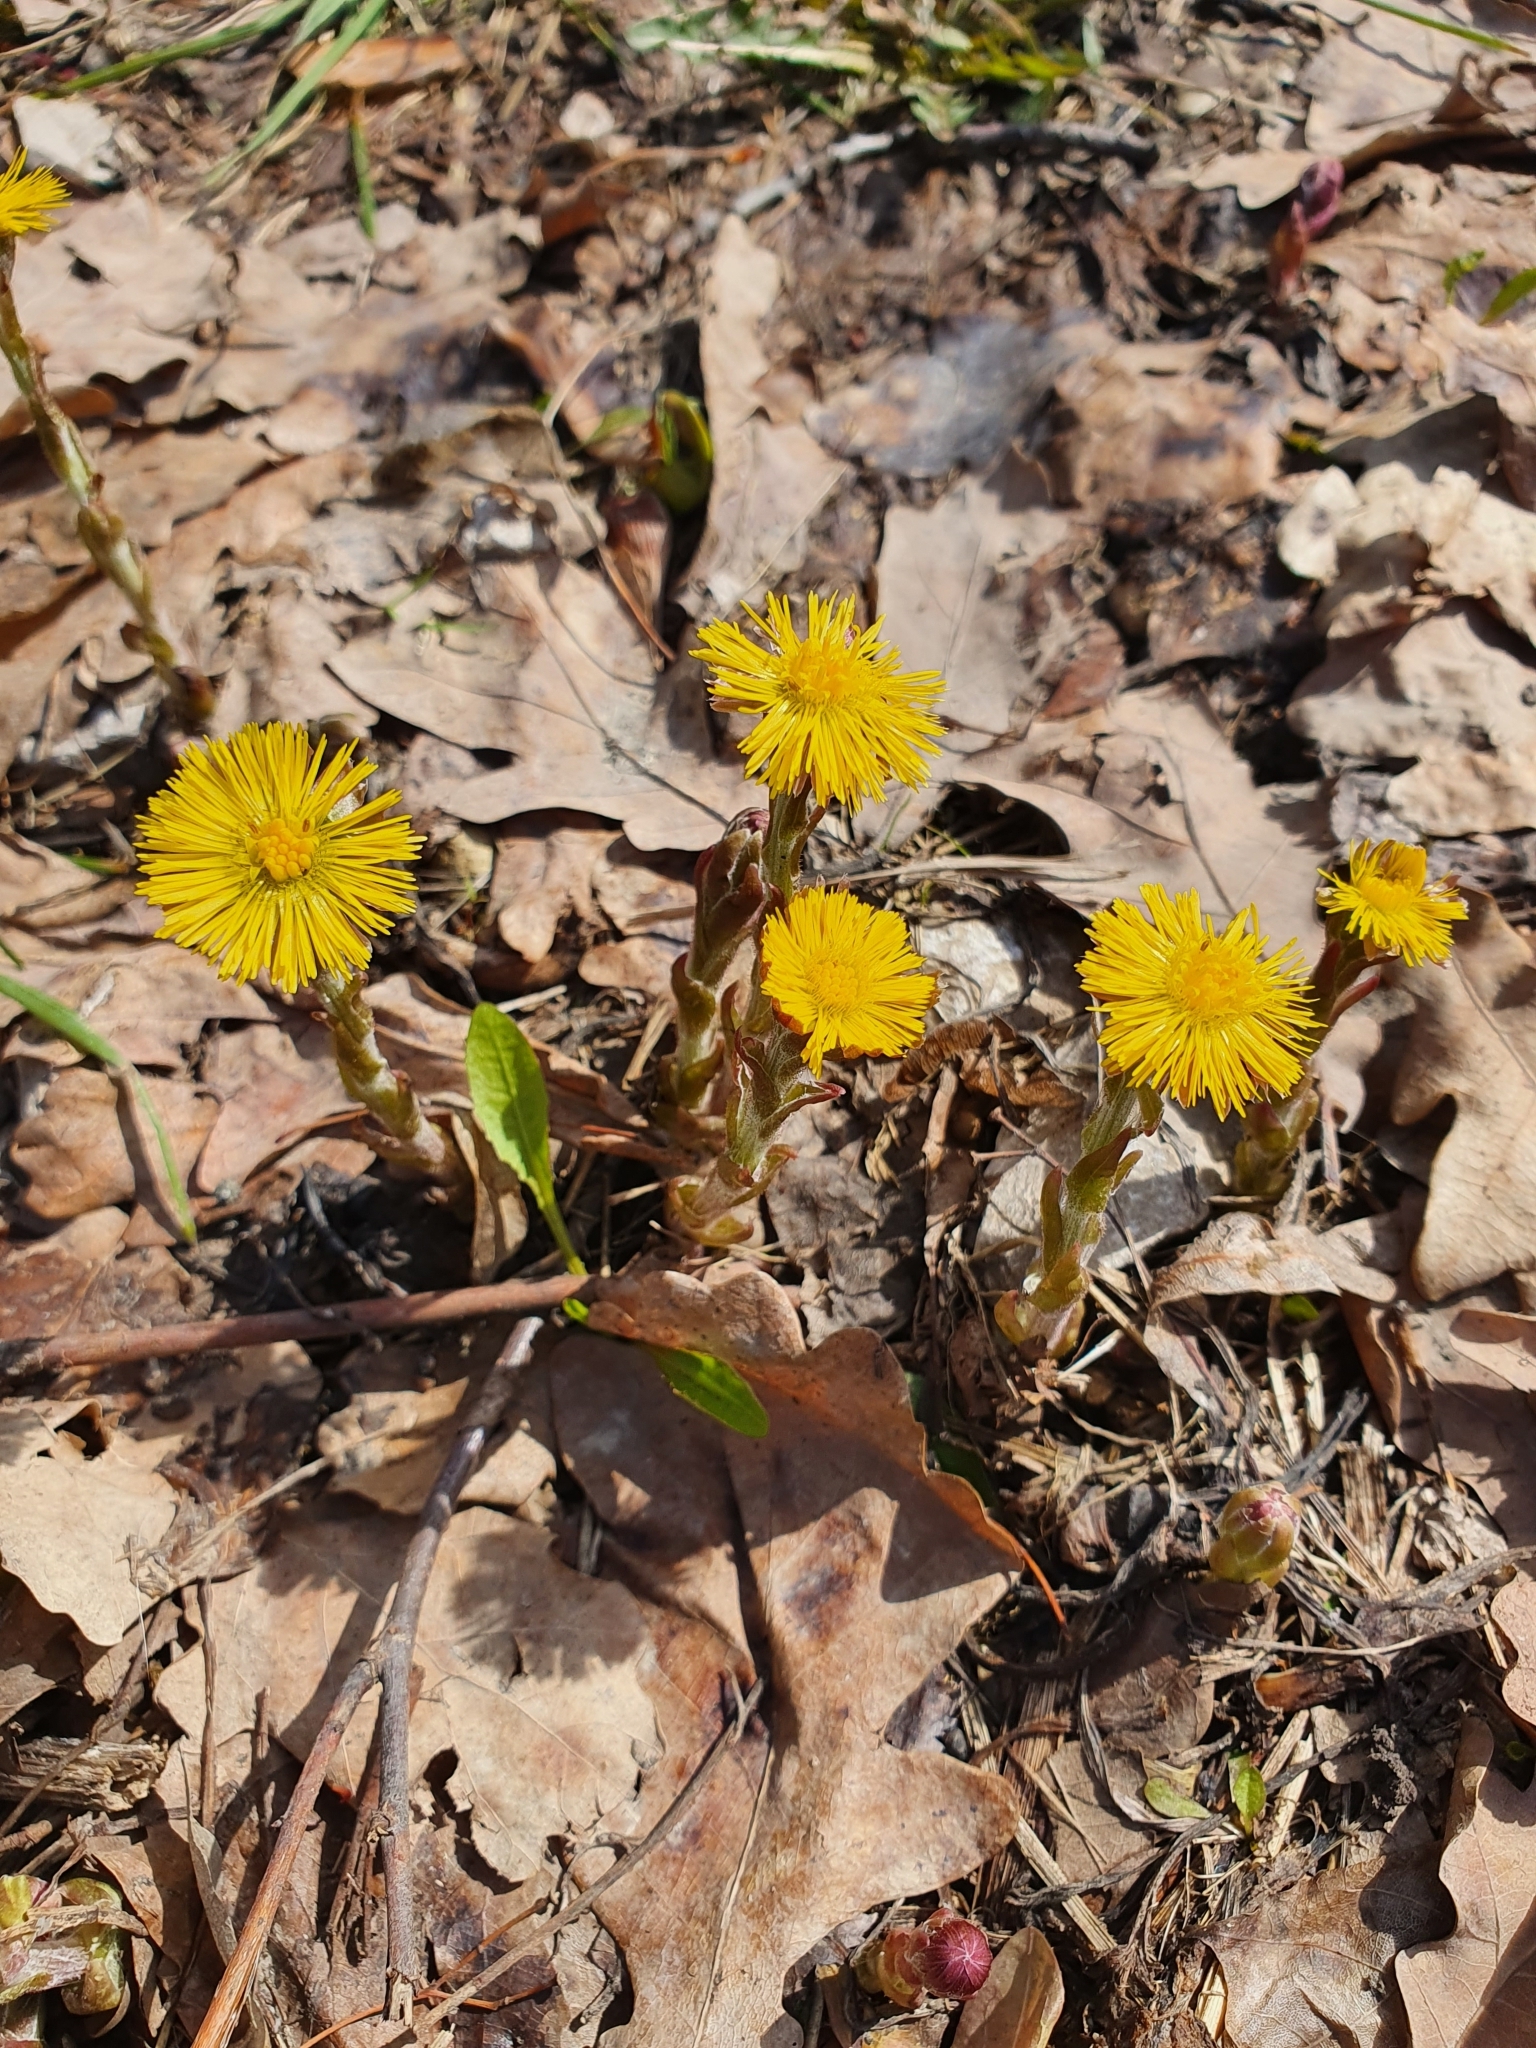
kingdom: Plantae
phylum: Tracheophyta
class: Magnoliopsida
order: Asterales
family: Asteraceae
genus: Tussilago
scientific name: Tussilago farfara
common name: Coltsfoot
